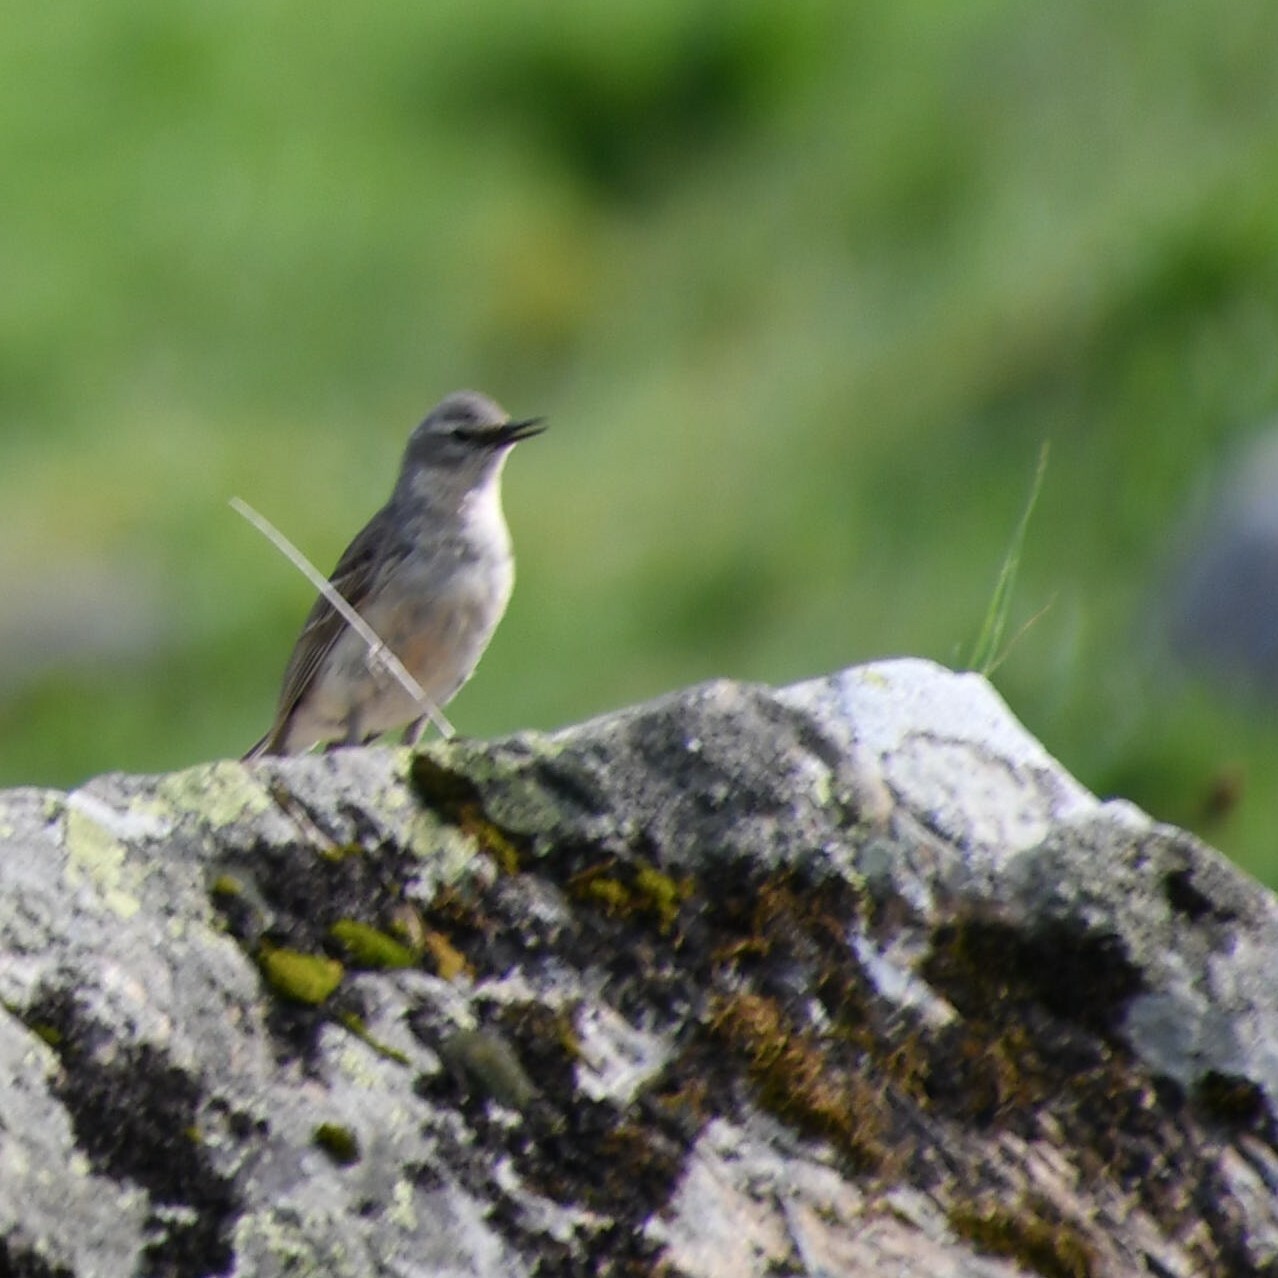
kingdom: Animalia
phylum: Chordata
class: Aves
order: Passeriformes
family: Motacillidae
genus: Anthus
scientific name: Anthus spinoletta
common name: Water pipit
